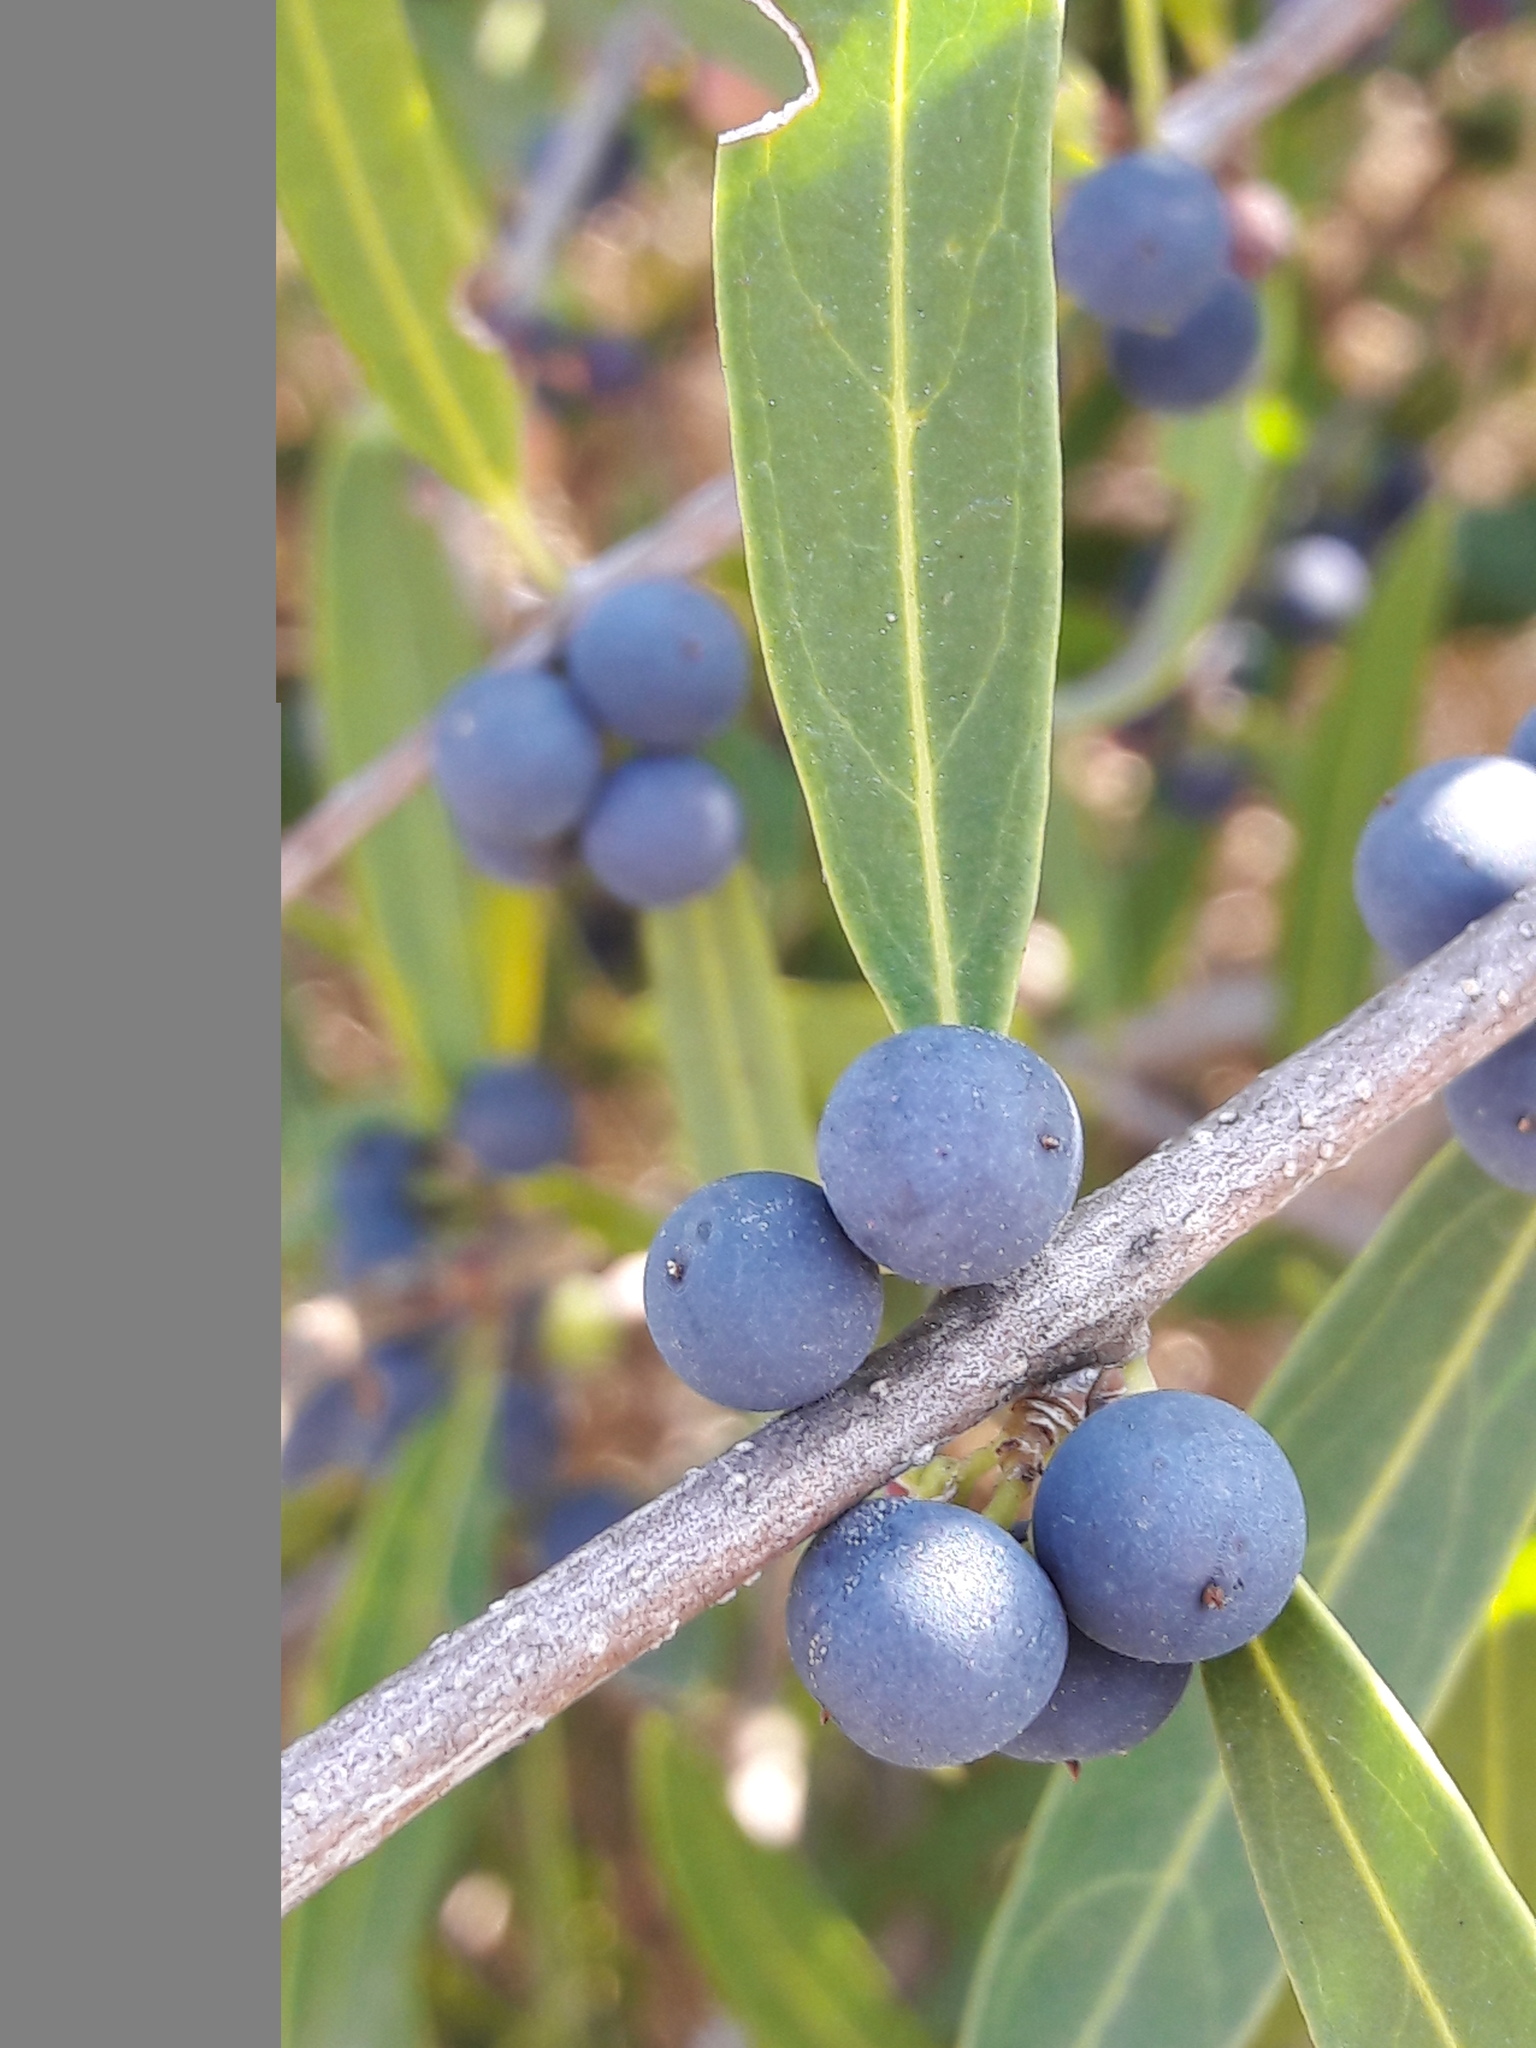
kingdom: Plantae
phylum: Tracheophyta
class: Magnoliopsida
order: Lamiales
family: Oleaceae
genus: Phillyrea
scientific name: Phillyrea angustifolia
